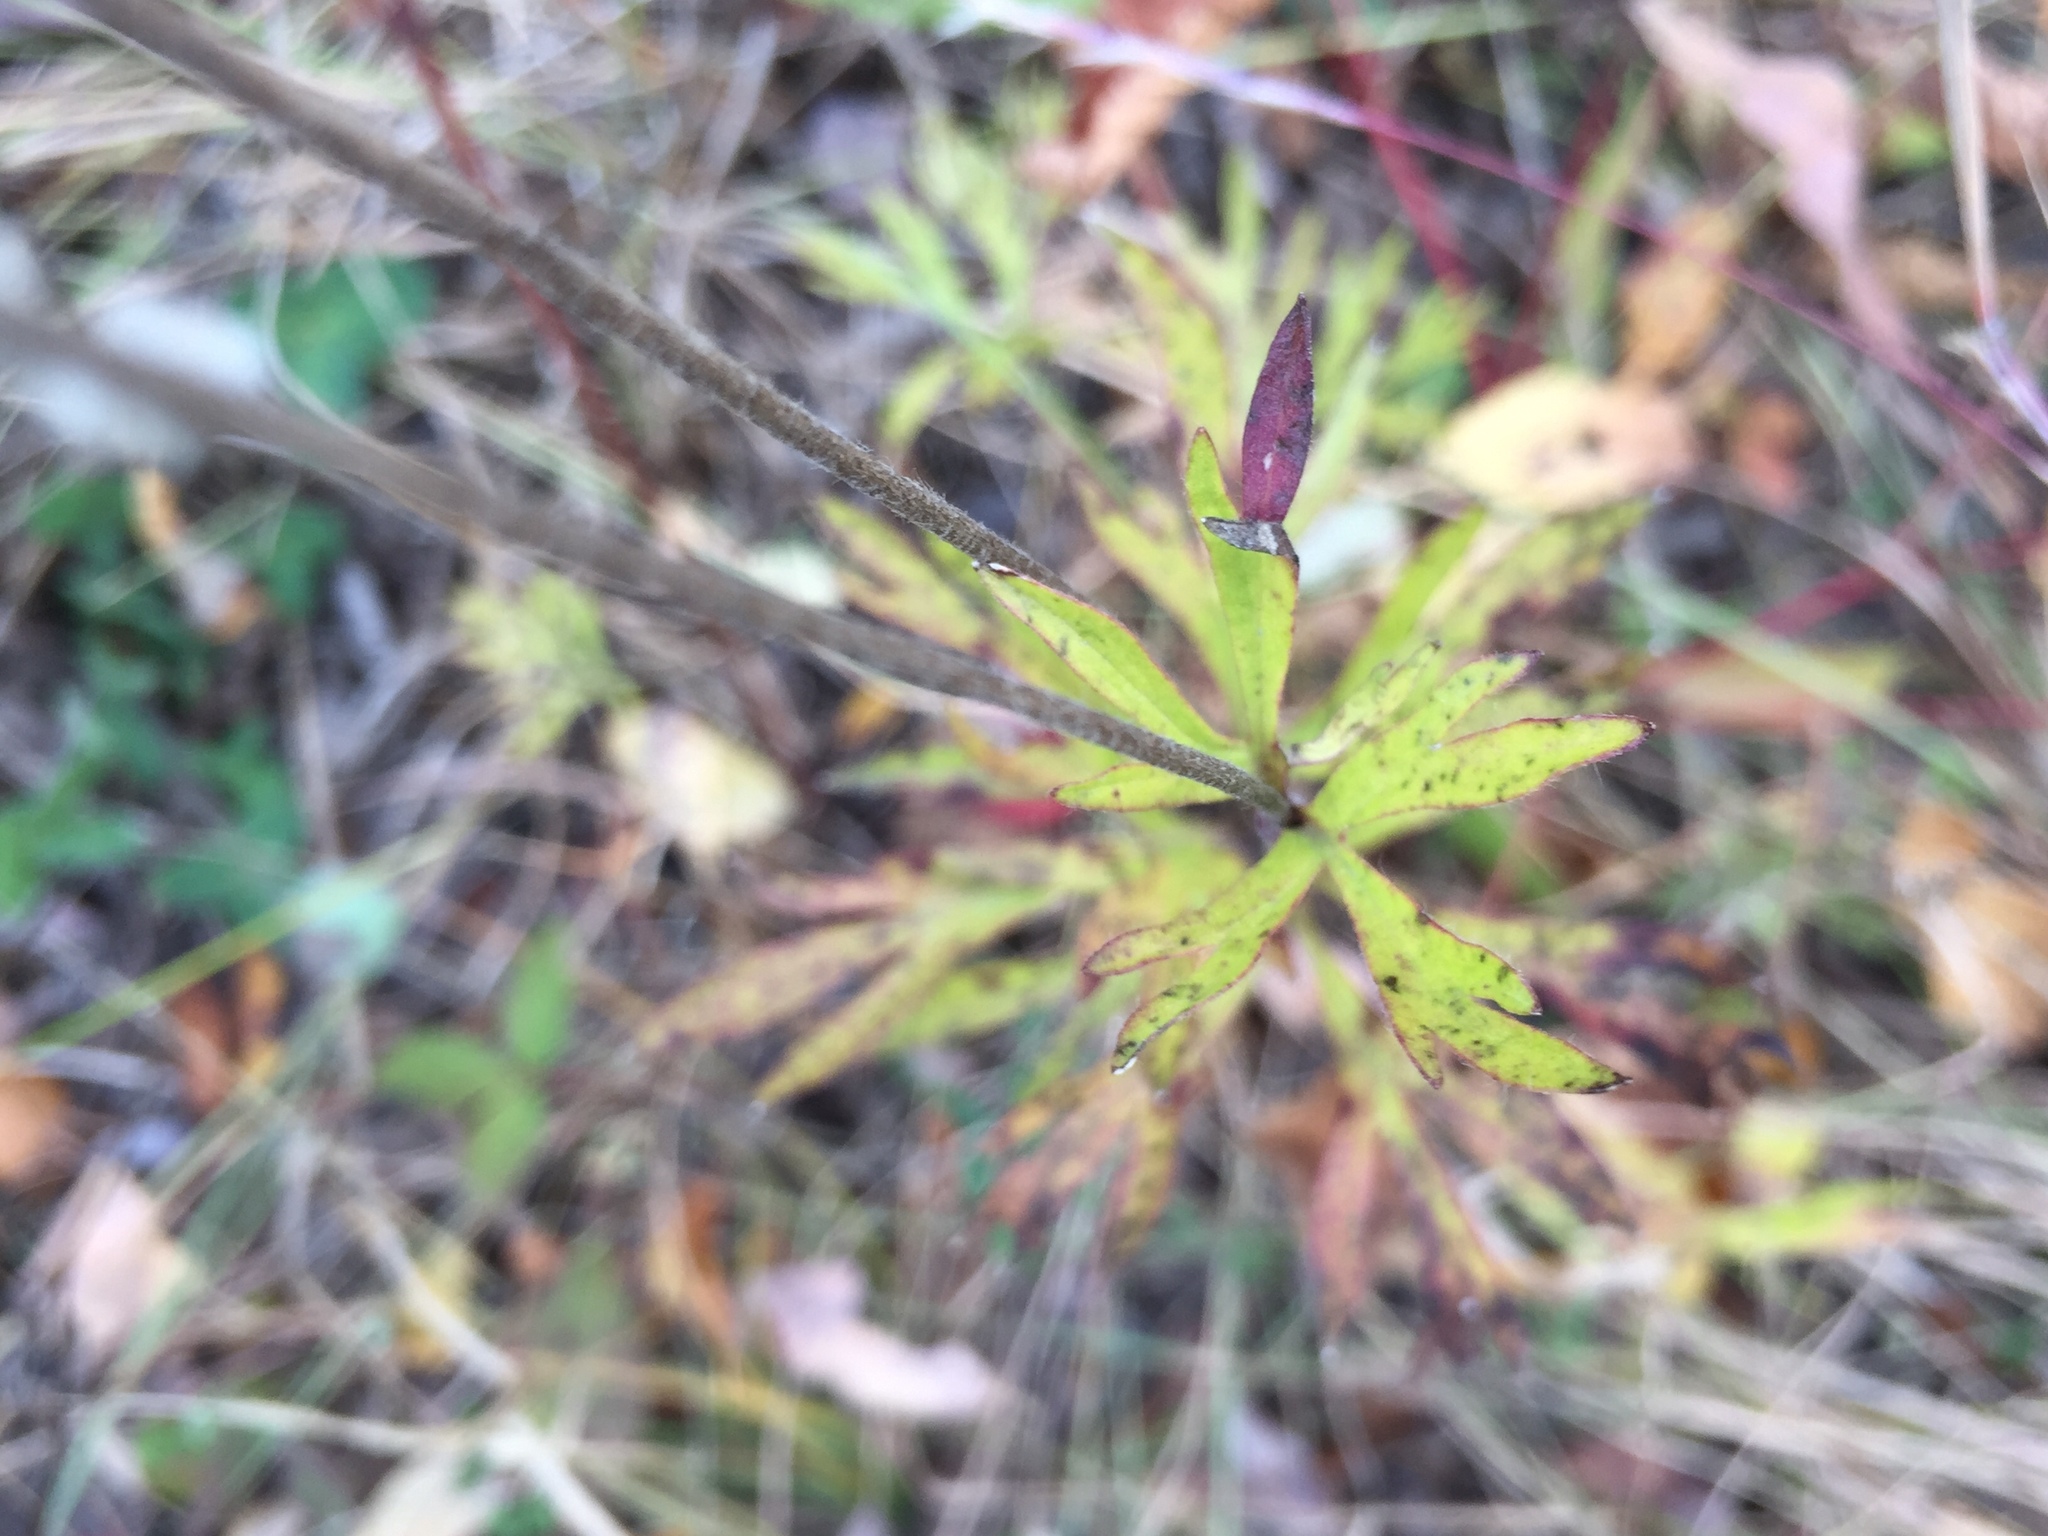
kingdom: Plantae
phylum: Tracheophyta
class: Magnoliopsida
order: Ranunculales
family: Ranunculaceae
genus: Anemone
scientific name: Anemone cylindrica
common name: Candle anemone
